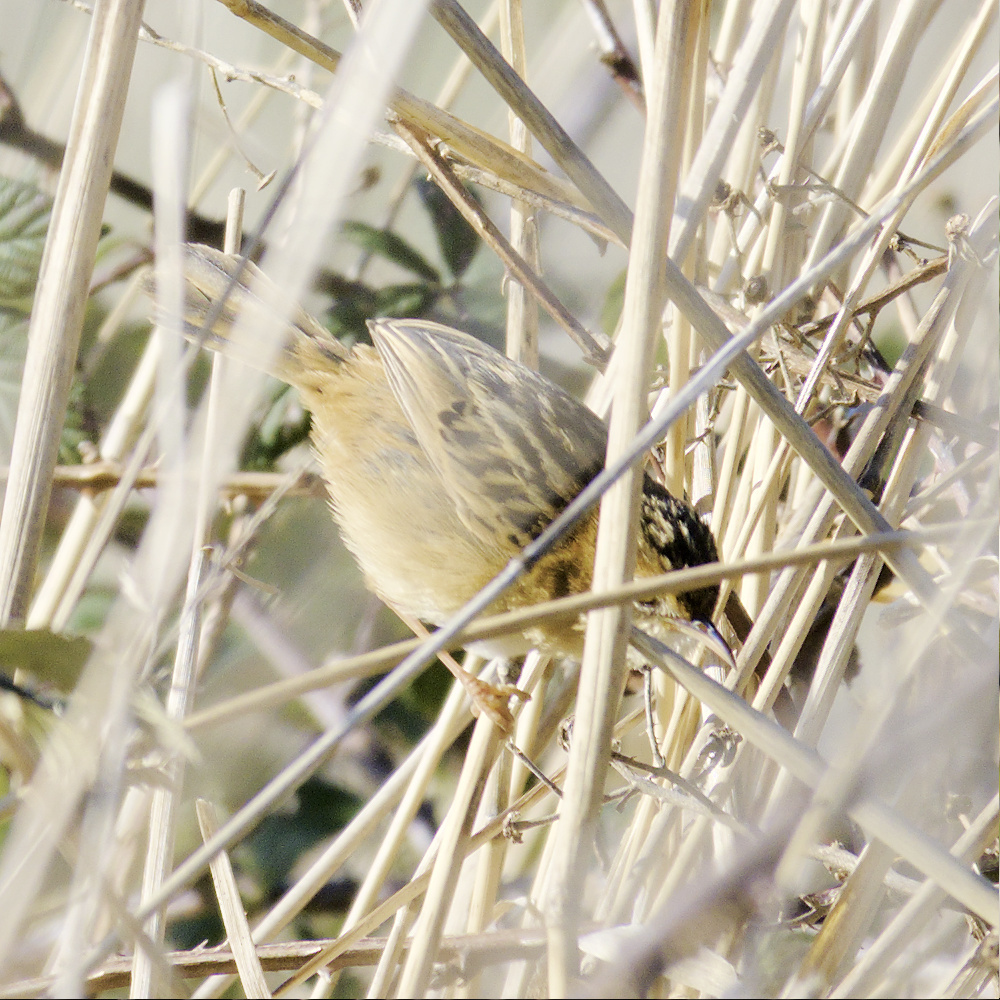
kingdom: Animalia
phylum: Chordata
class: Aves
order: Passeriformes
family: Cisticolidae
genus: Cisticola
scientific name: Cisticola exilis
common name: Golden-headed cisticola
